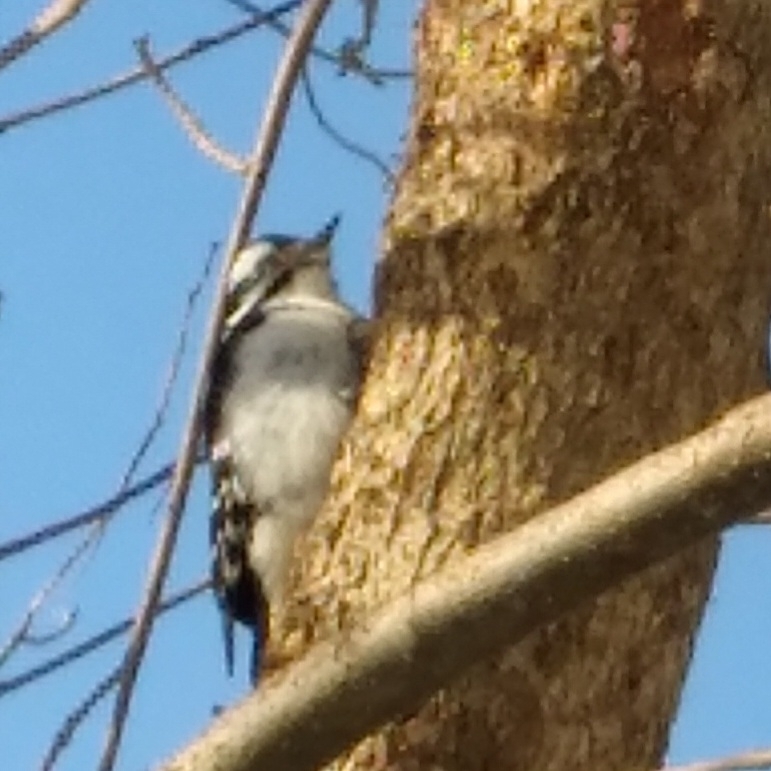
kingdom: Animalia
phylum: Chordata
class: Aves
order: Piciformes
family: Picidae
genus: Dryobates
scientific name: Dryobates pubescens
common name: Downy woodpecker
